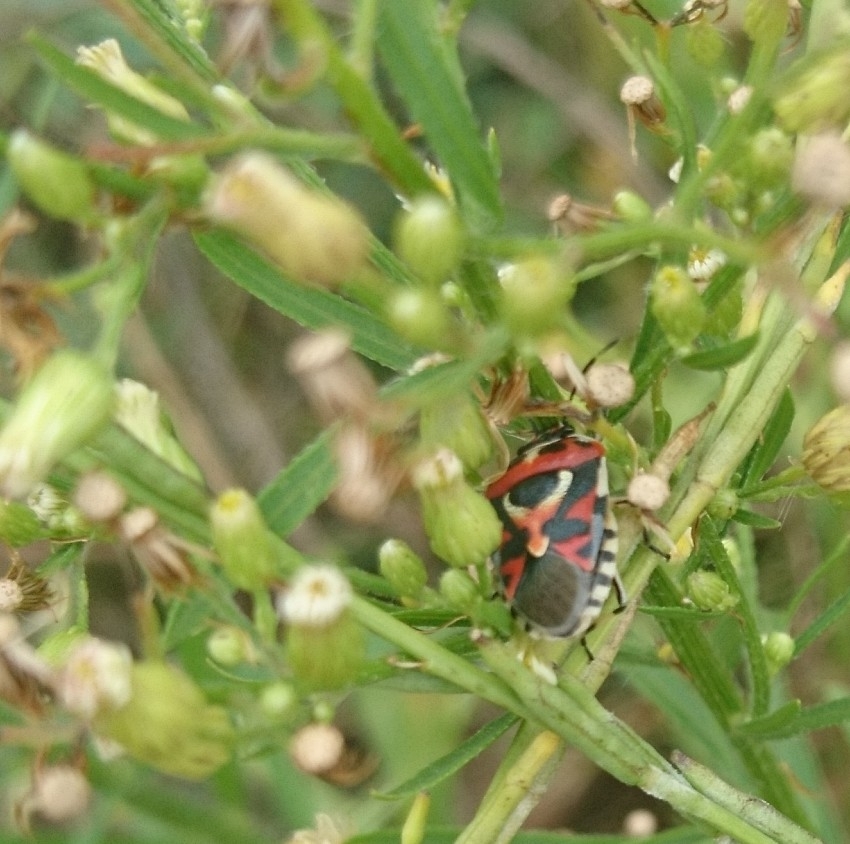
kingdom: Animalia
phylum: Arthropoda
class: Insecta
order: Hemiptera
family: Pentatomidae
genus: Eurydema
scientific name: Eurydema ornata
